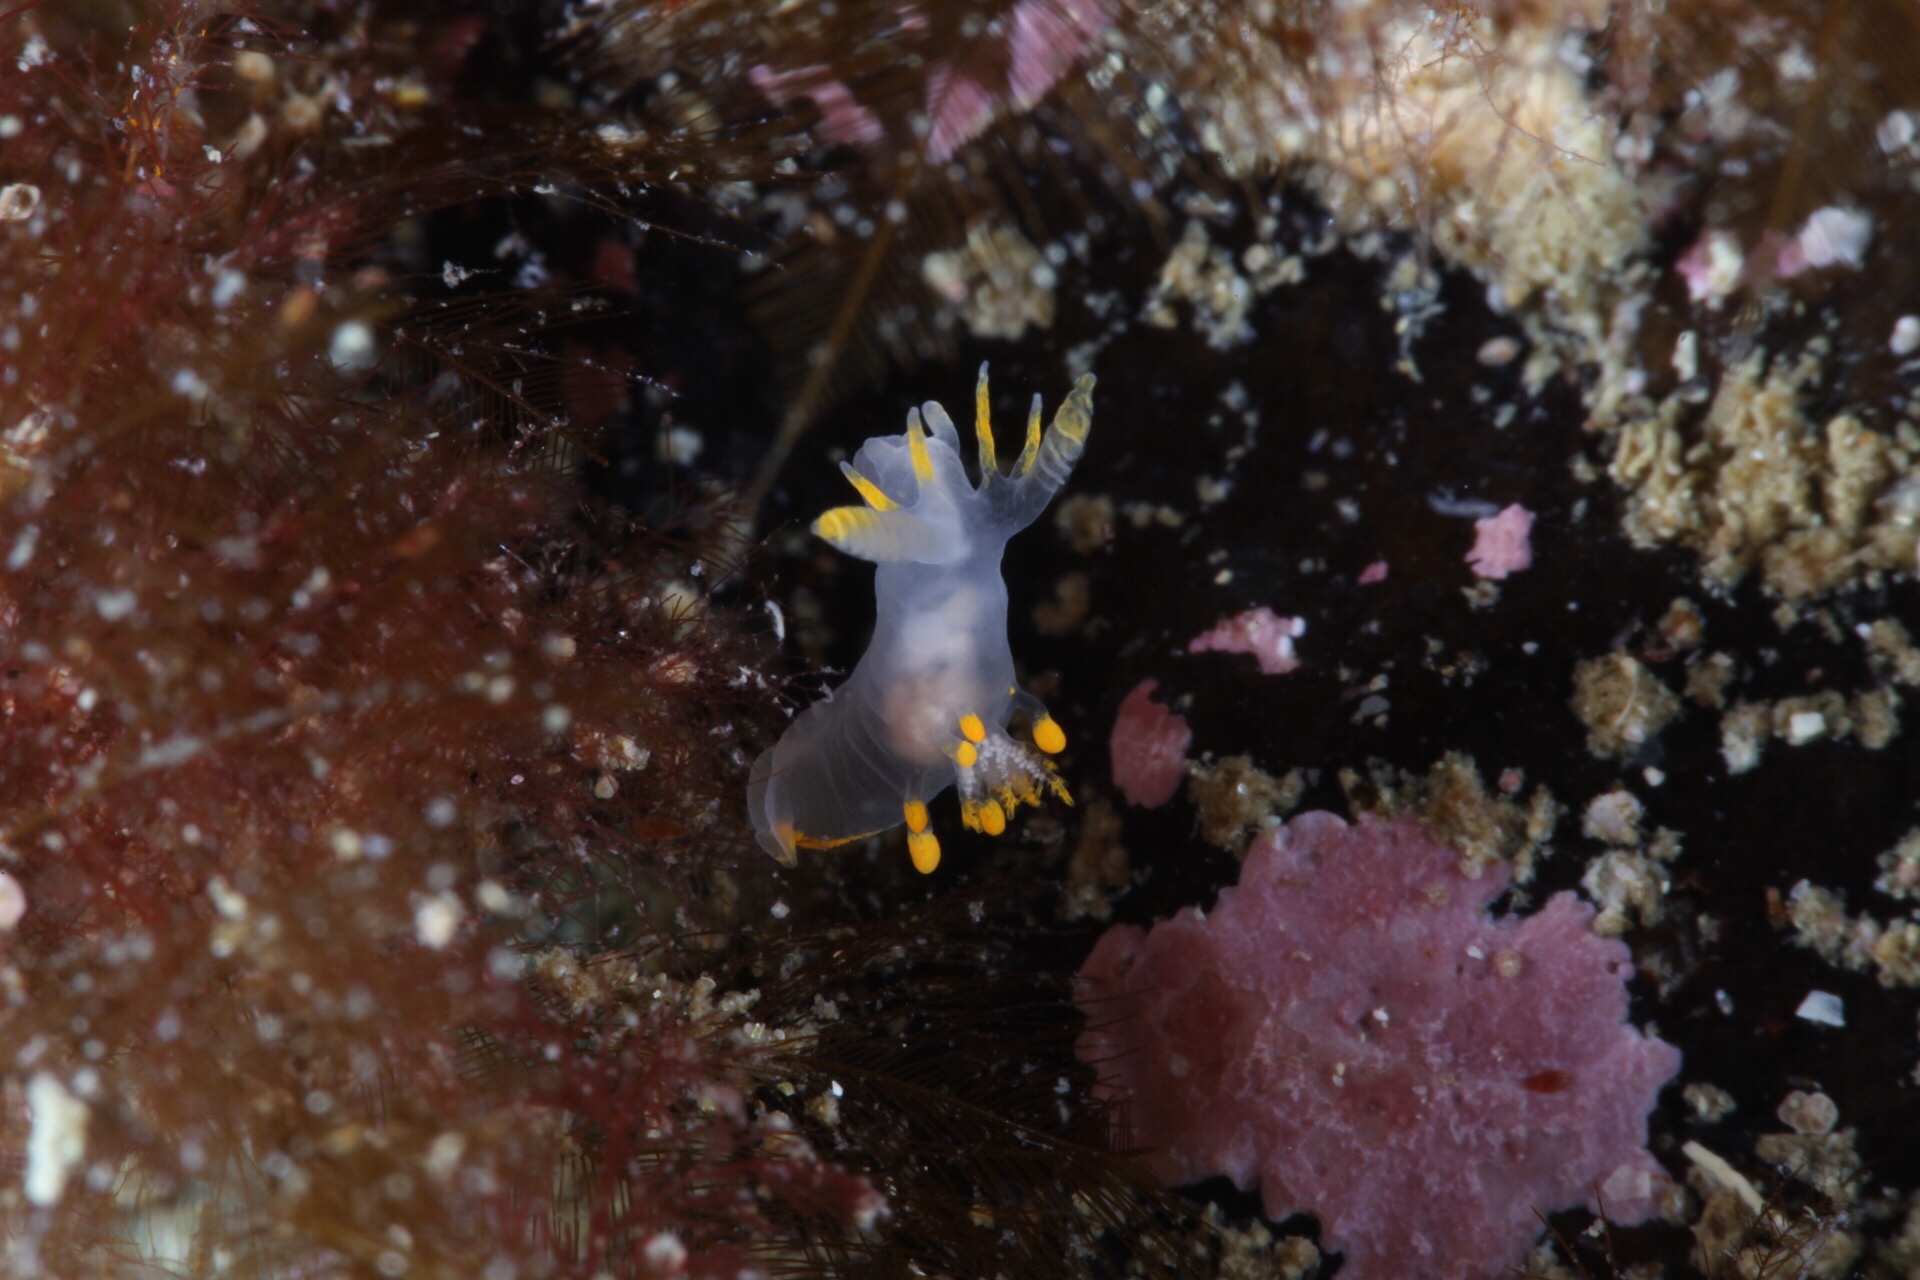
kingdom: Animalia
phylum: Mollusca
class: Gastropoda
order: Nudibranchia
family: Goniodorididae
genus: Ancula
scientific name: Ancula gibbosa
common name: Atlantic ancula
